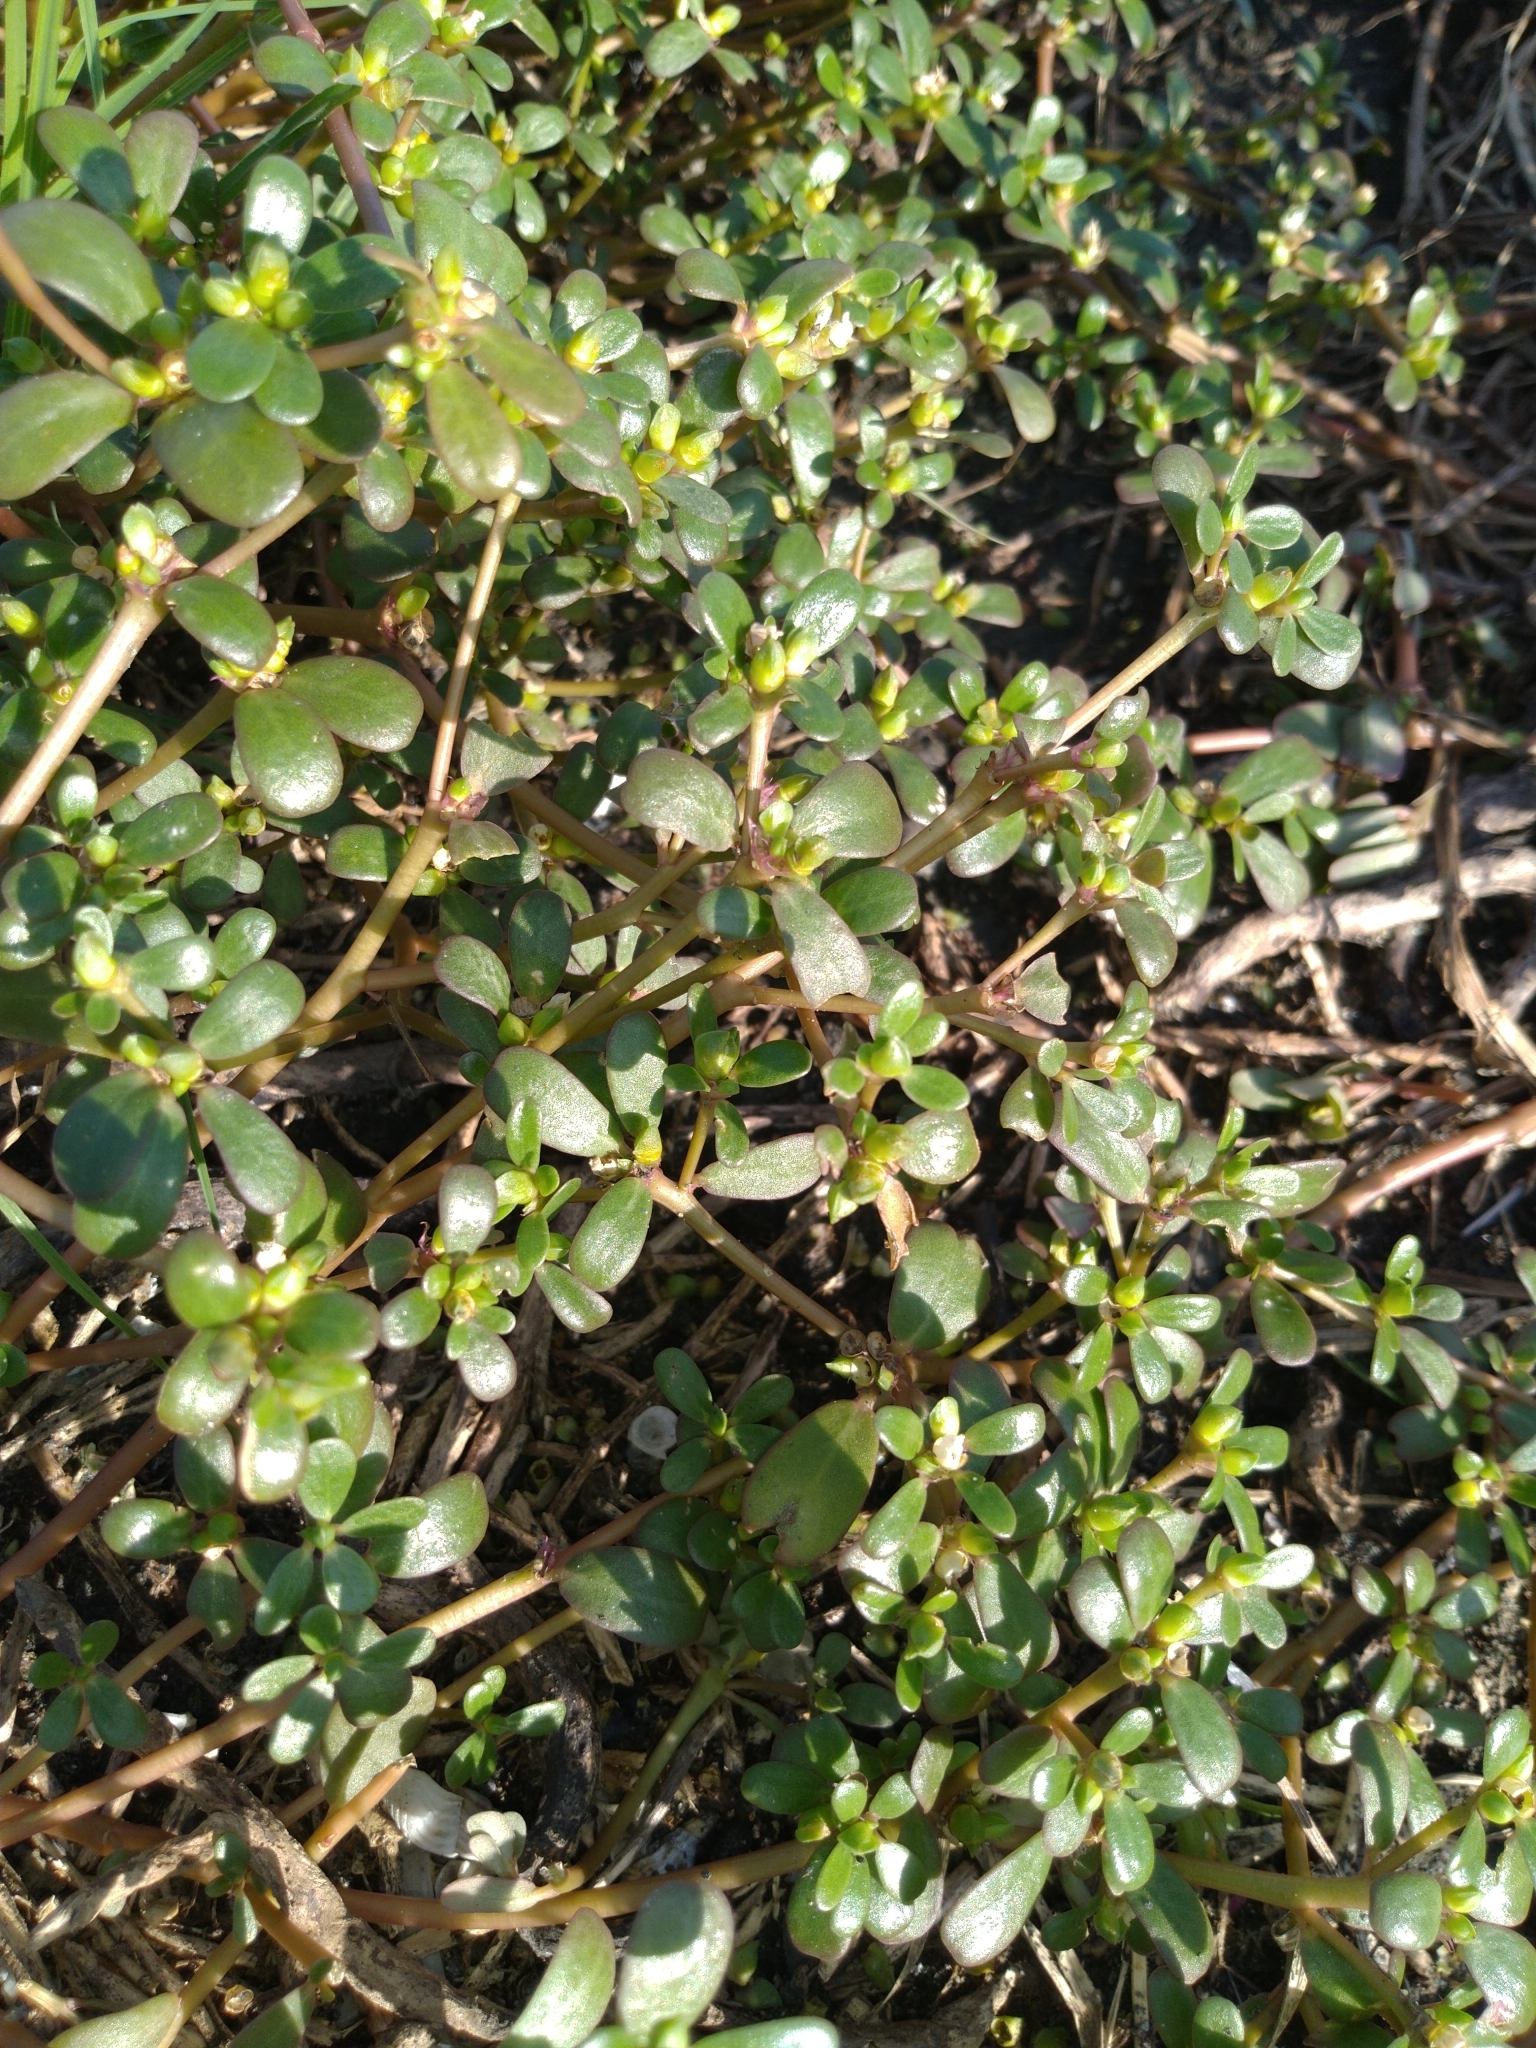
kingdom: Plantae
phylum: Tracheophyta
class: Magnoliopsida
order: Caryophyllales
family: Portulacaceae
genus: Portulaca
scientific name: Portulaca oleracea
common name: Common purslane
